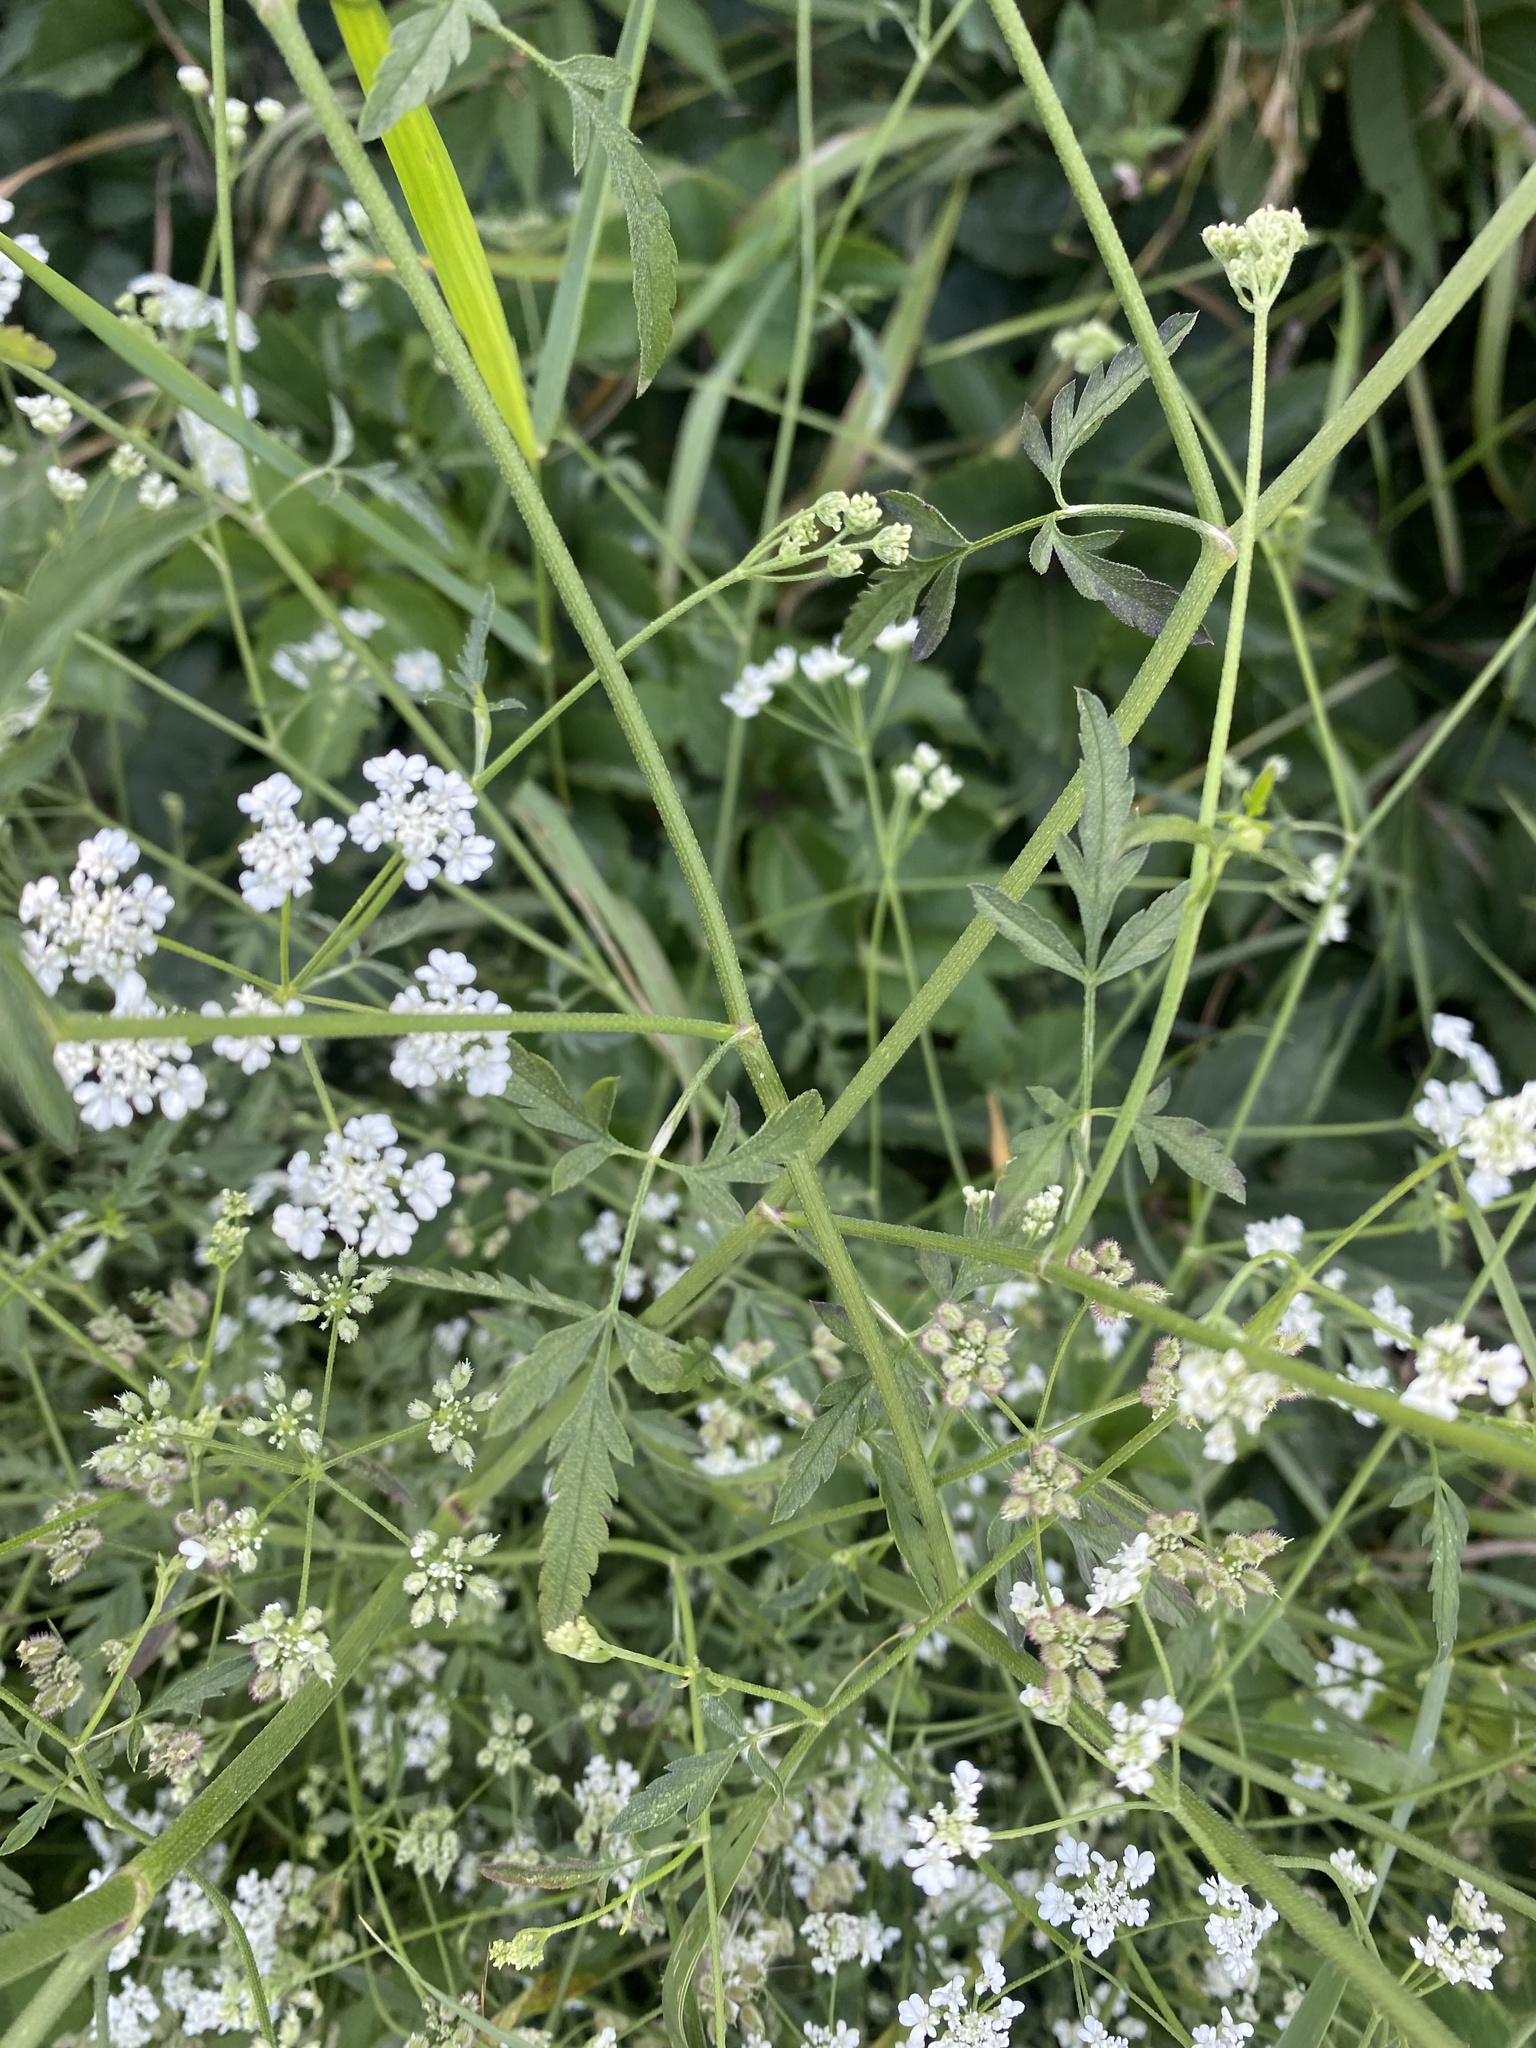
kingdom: Plantae
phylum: Tracheophyta
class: Magnoliopsida
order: Apiales
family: Apiaceae
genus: Torilis
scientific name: Torilis arvensis
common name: Spreading hedge-parsley
